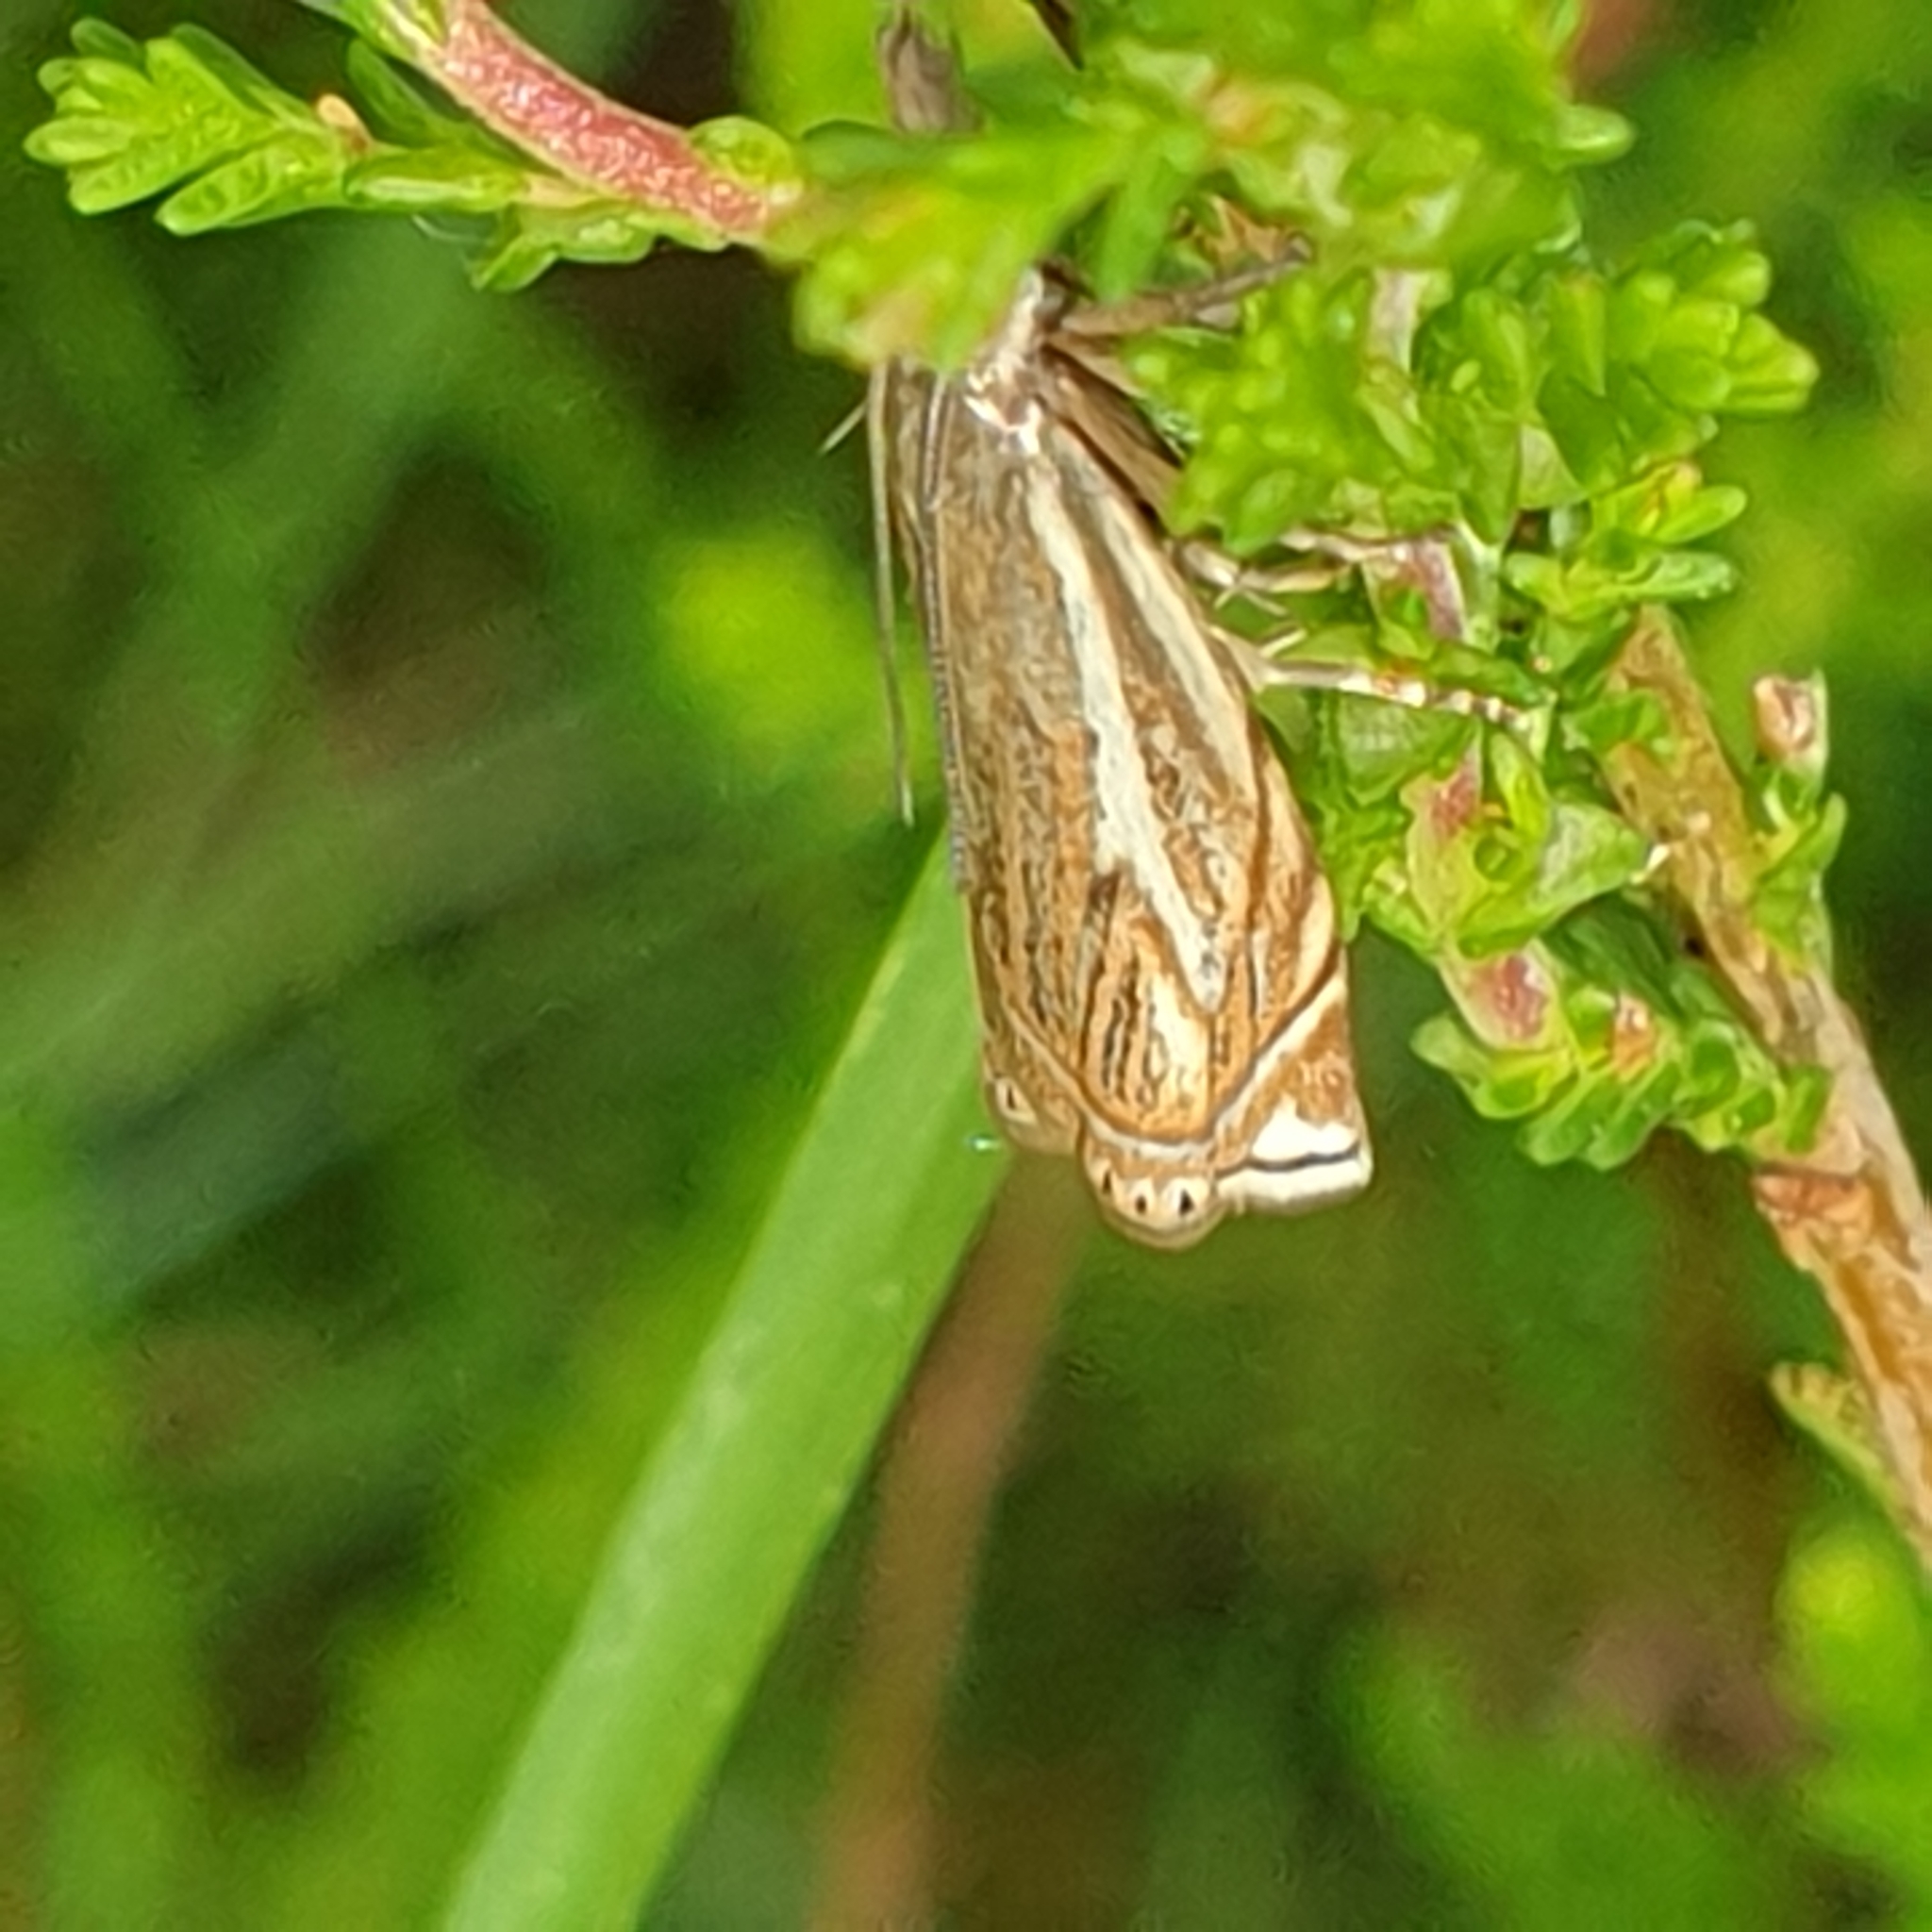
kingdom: Animalia
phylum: Arthropoda
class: Insecta
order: Lepidoptera
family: Crambidae
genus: Crambus
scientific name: Crambus nemorella
